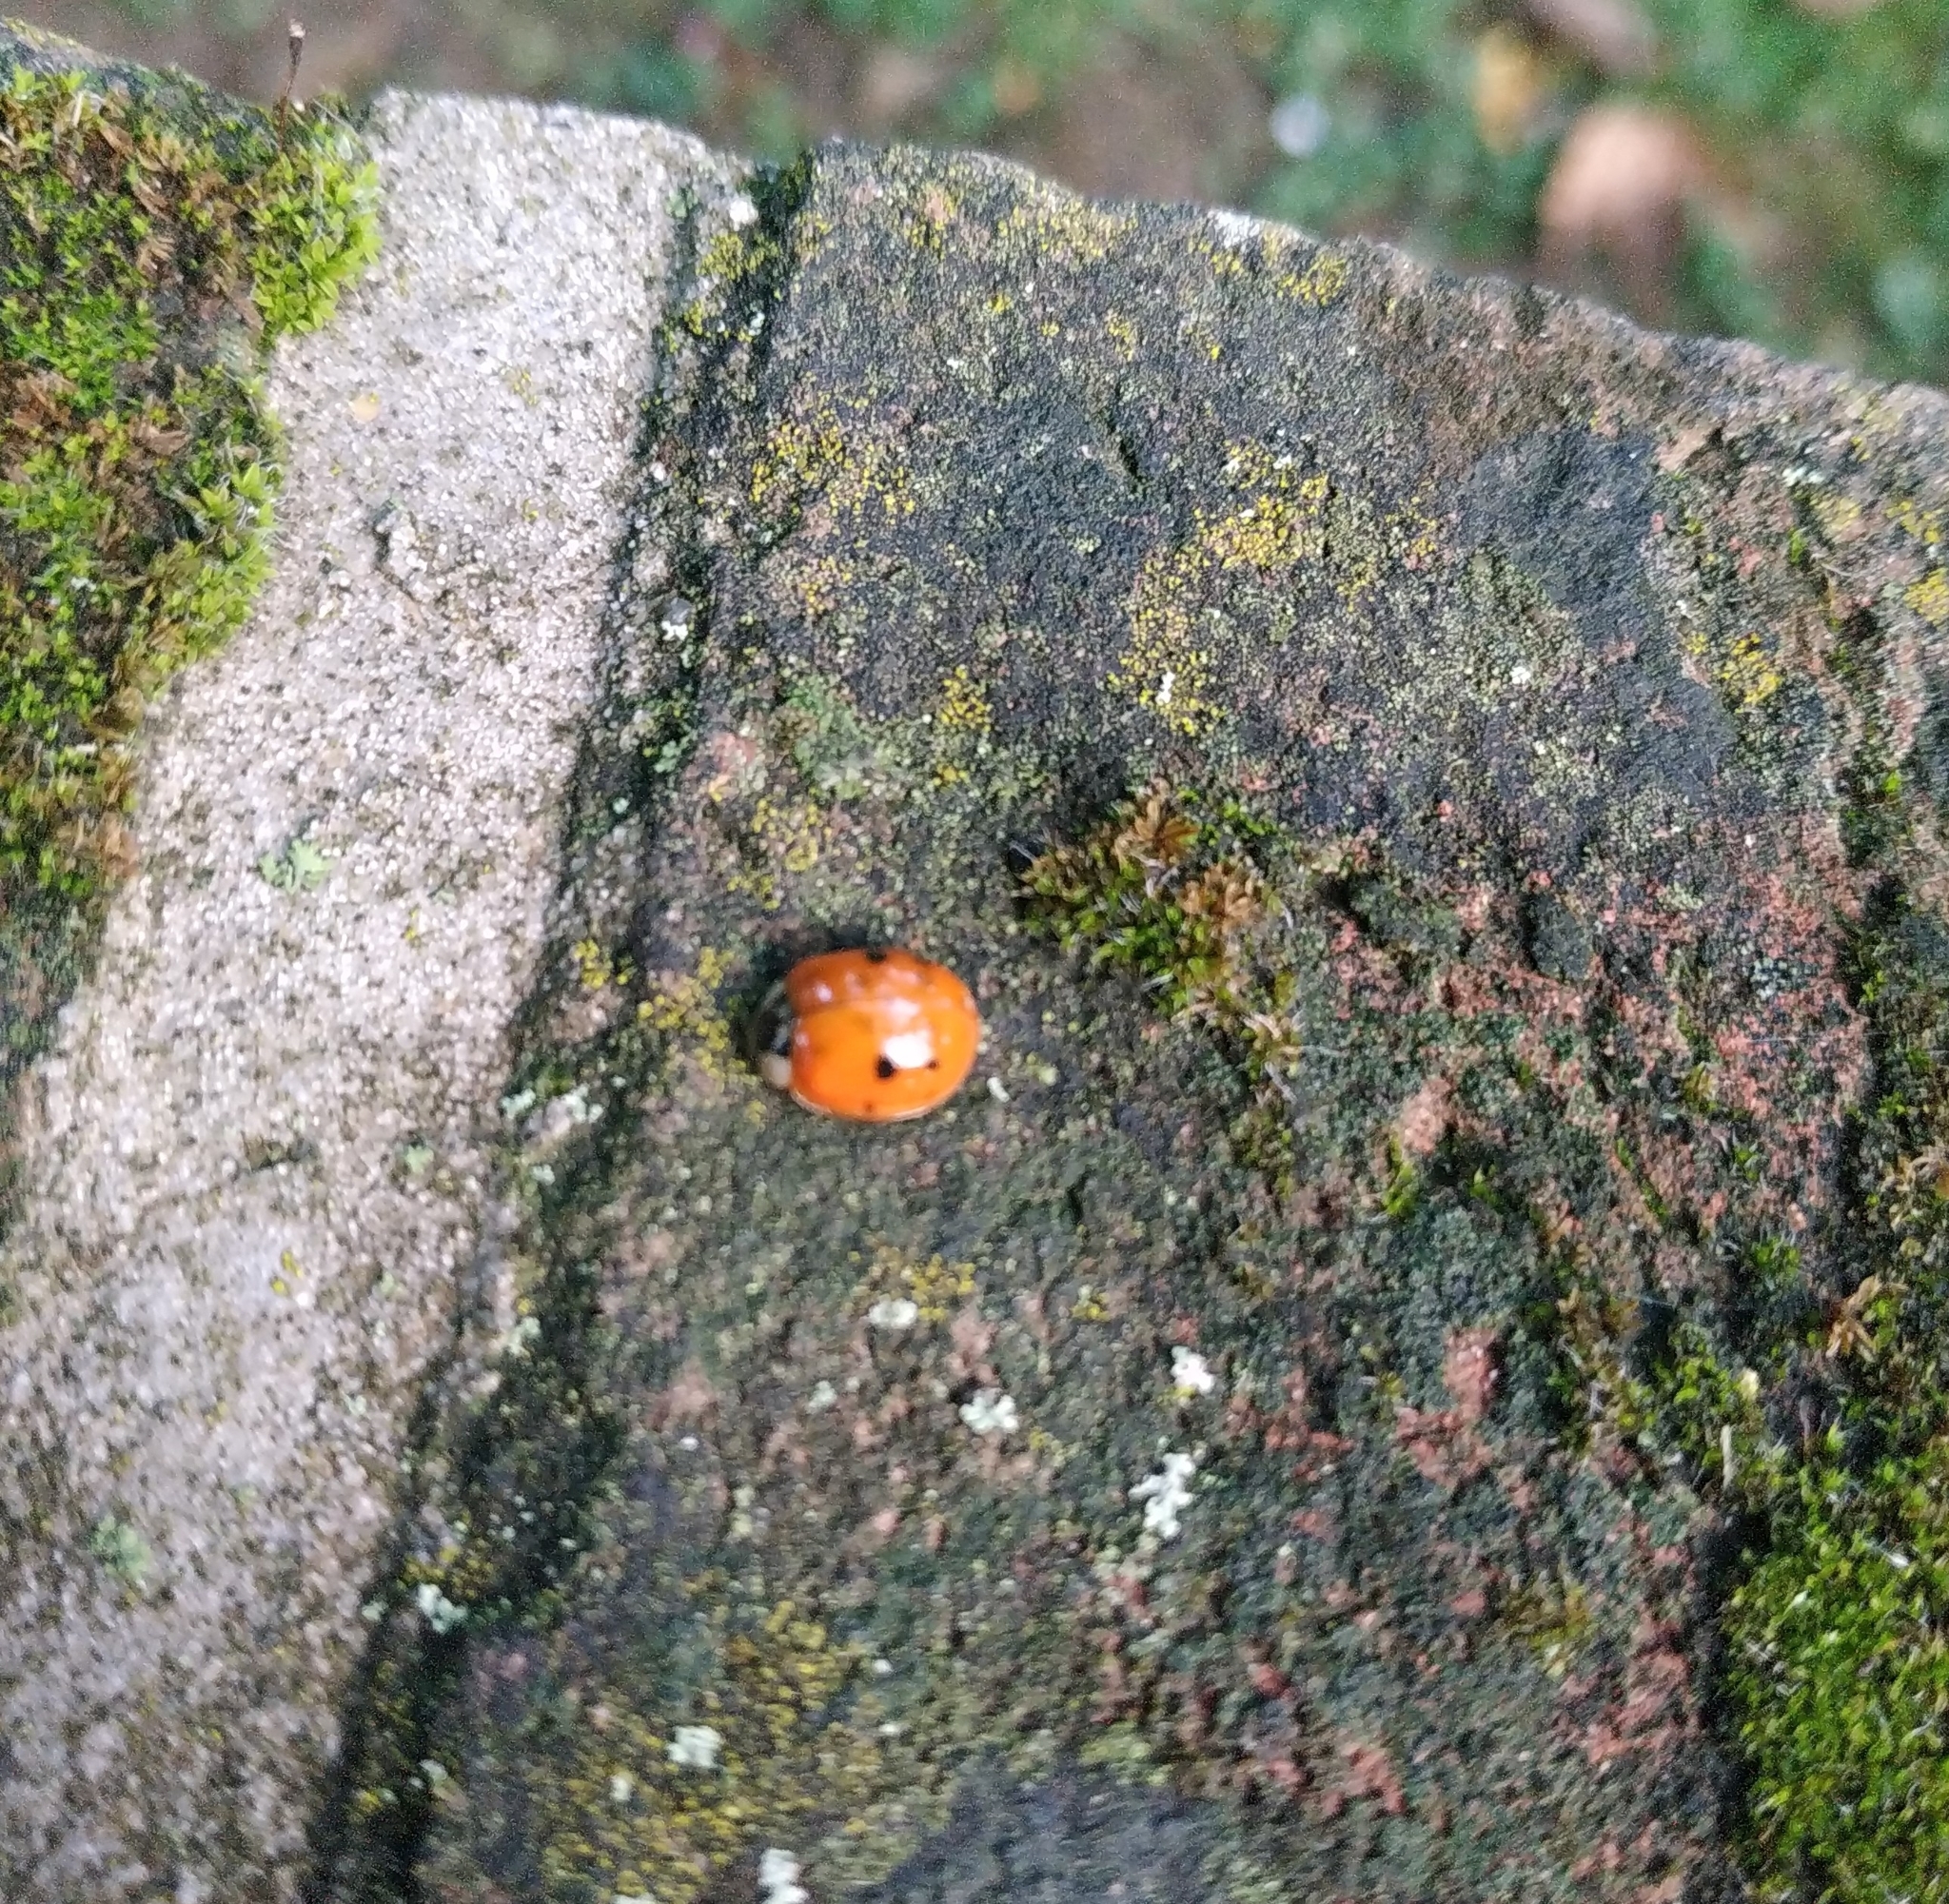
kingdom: Animalia
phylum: Arthropoda
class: Insecta
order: Coleoptera
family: Coccinellidae
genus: Harmonia
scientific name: Harmonia axyridis
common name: Harlequin ladybird
